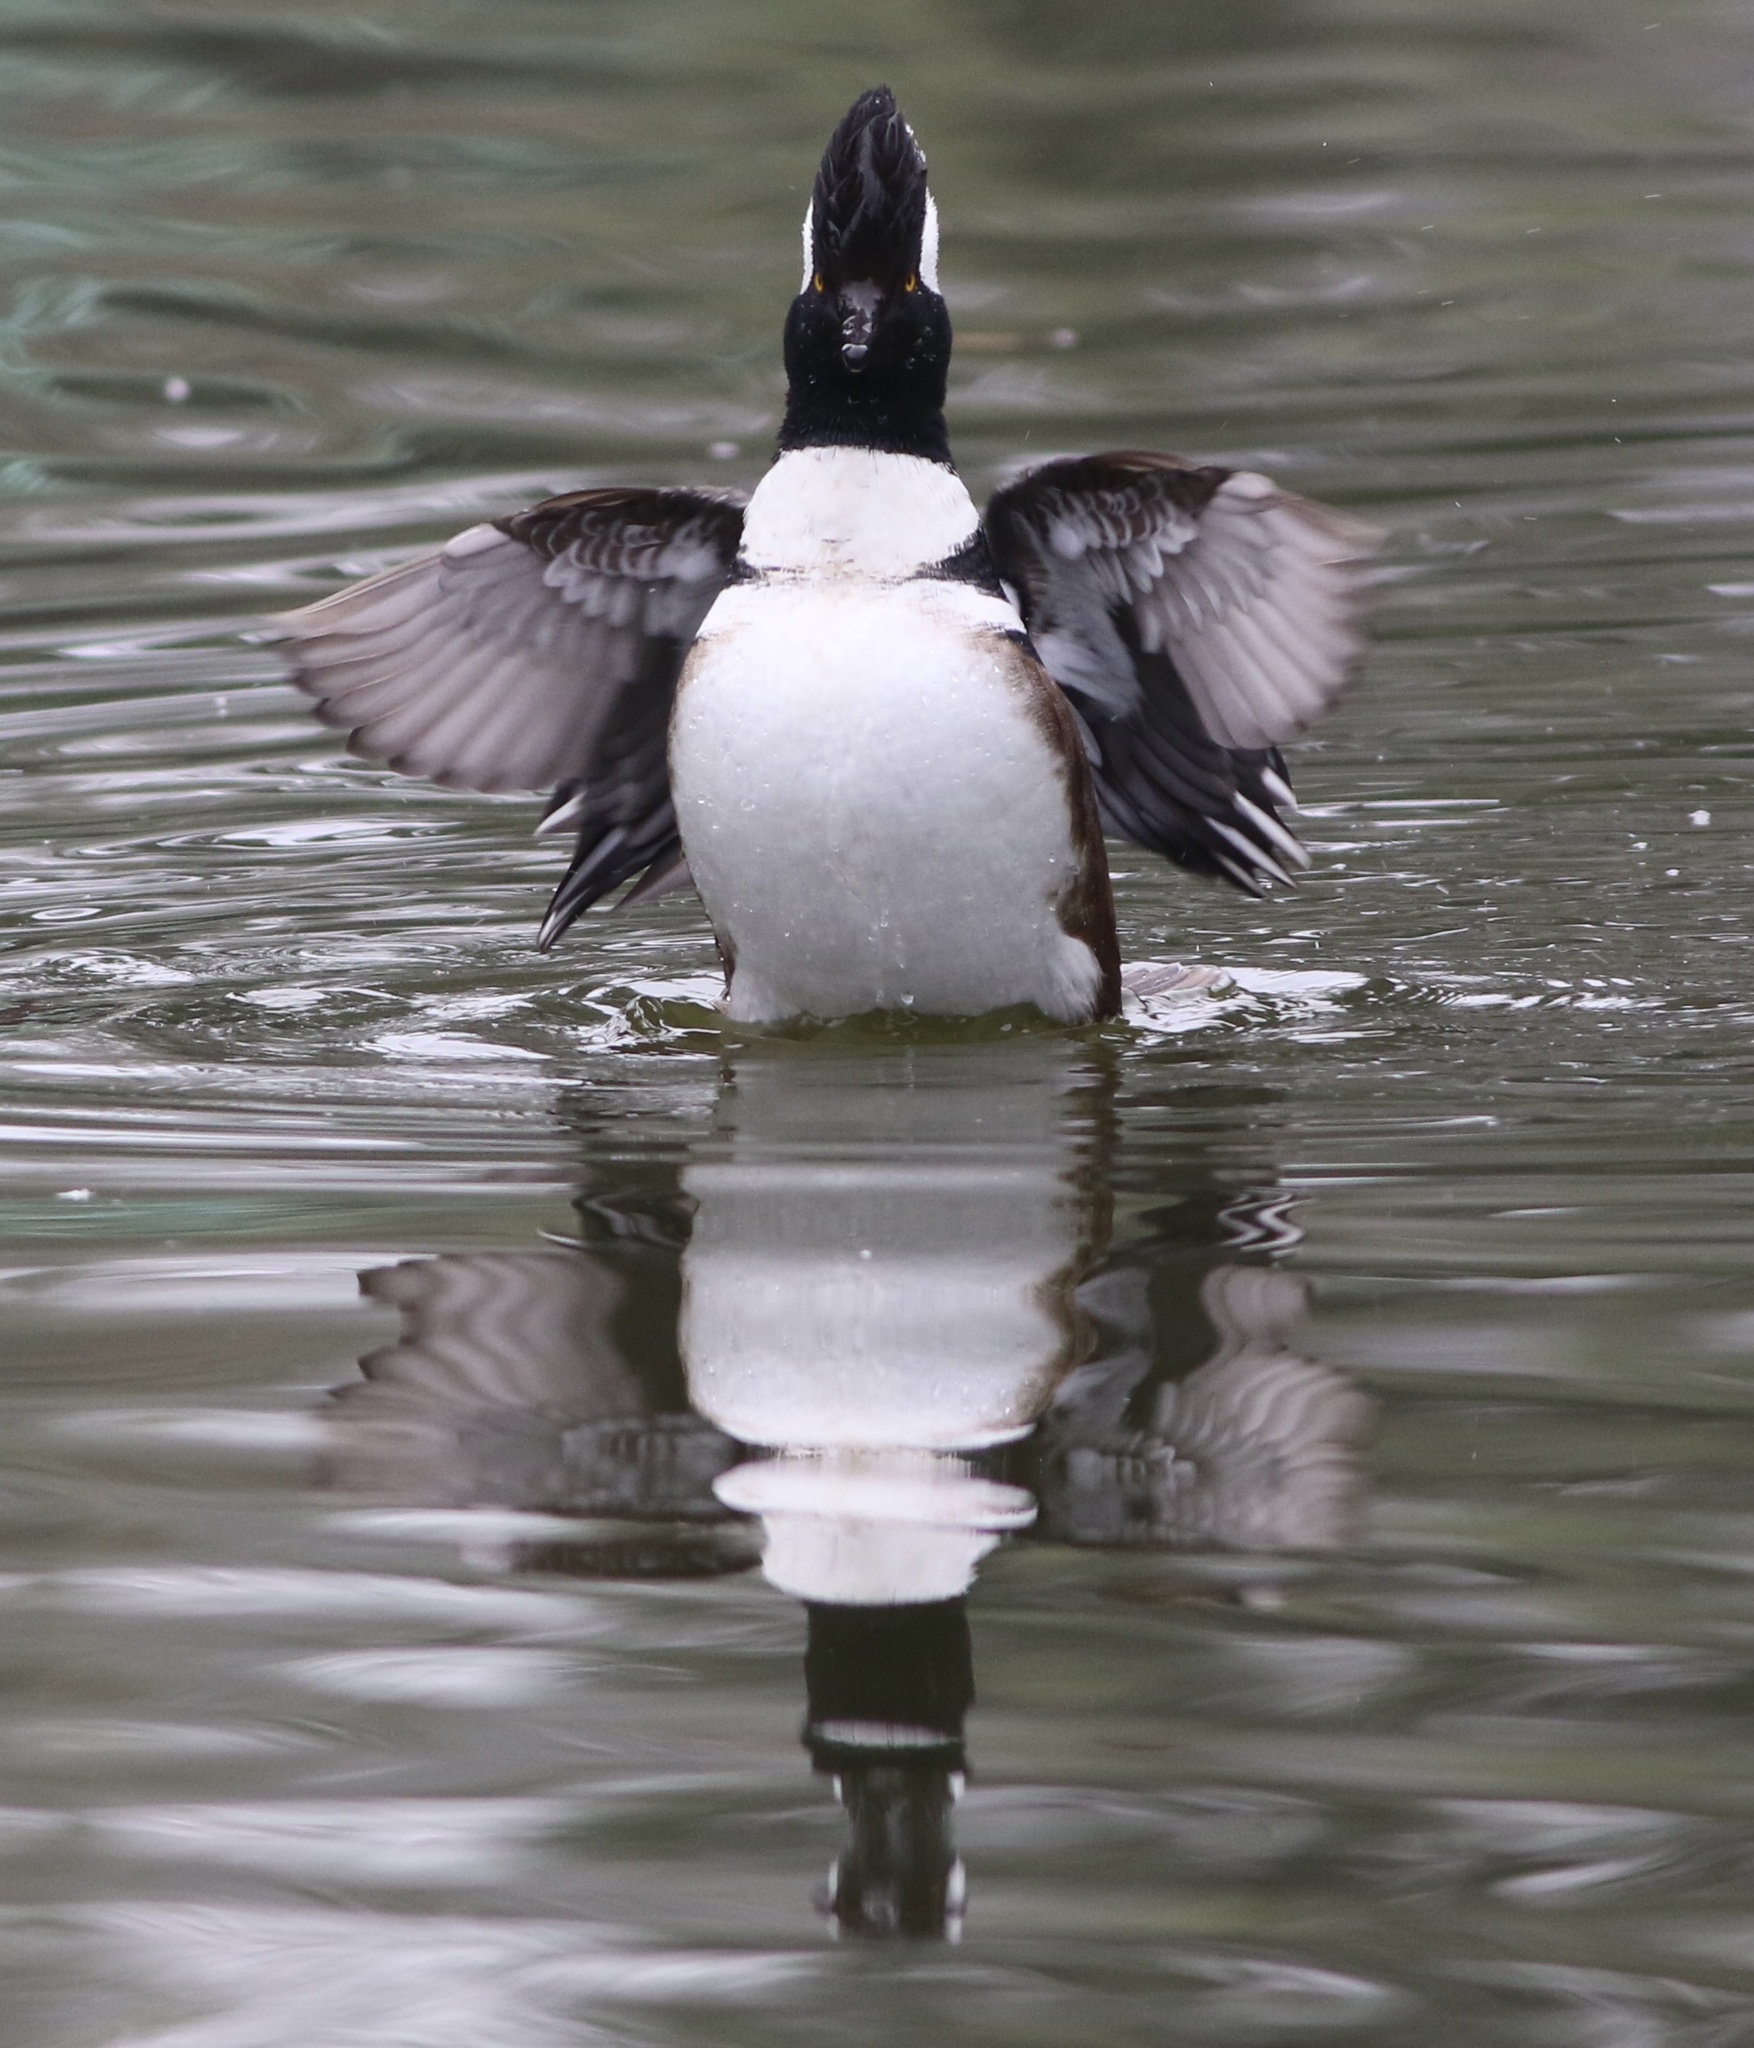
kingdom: Animalia
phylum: Chordata
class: Aves
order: Anseriformes
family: Anatidae
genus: Lophodytes
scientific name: Lophodytes cucullatus
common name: Hooded merganser
